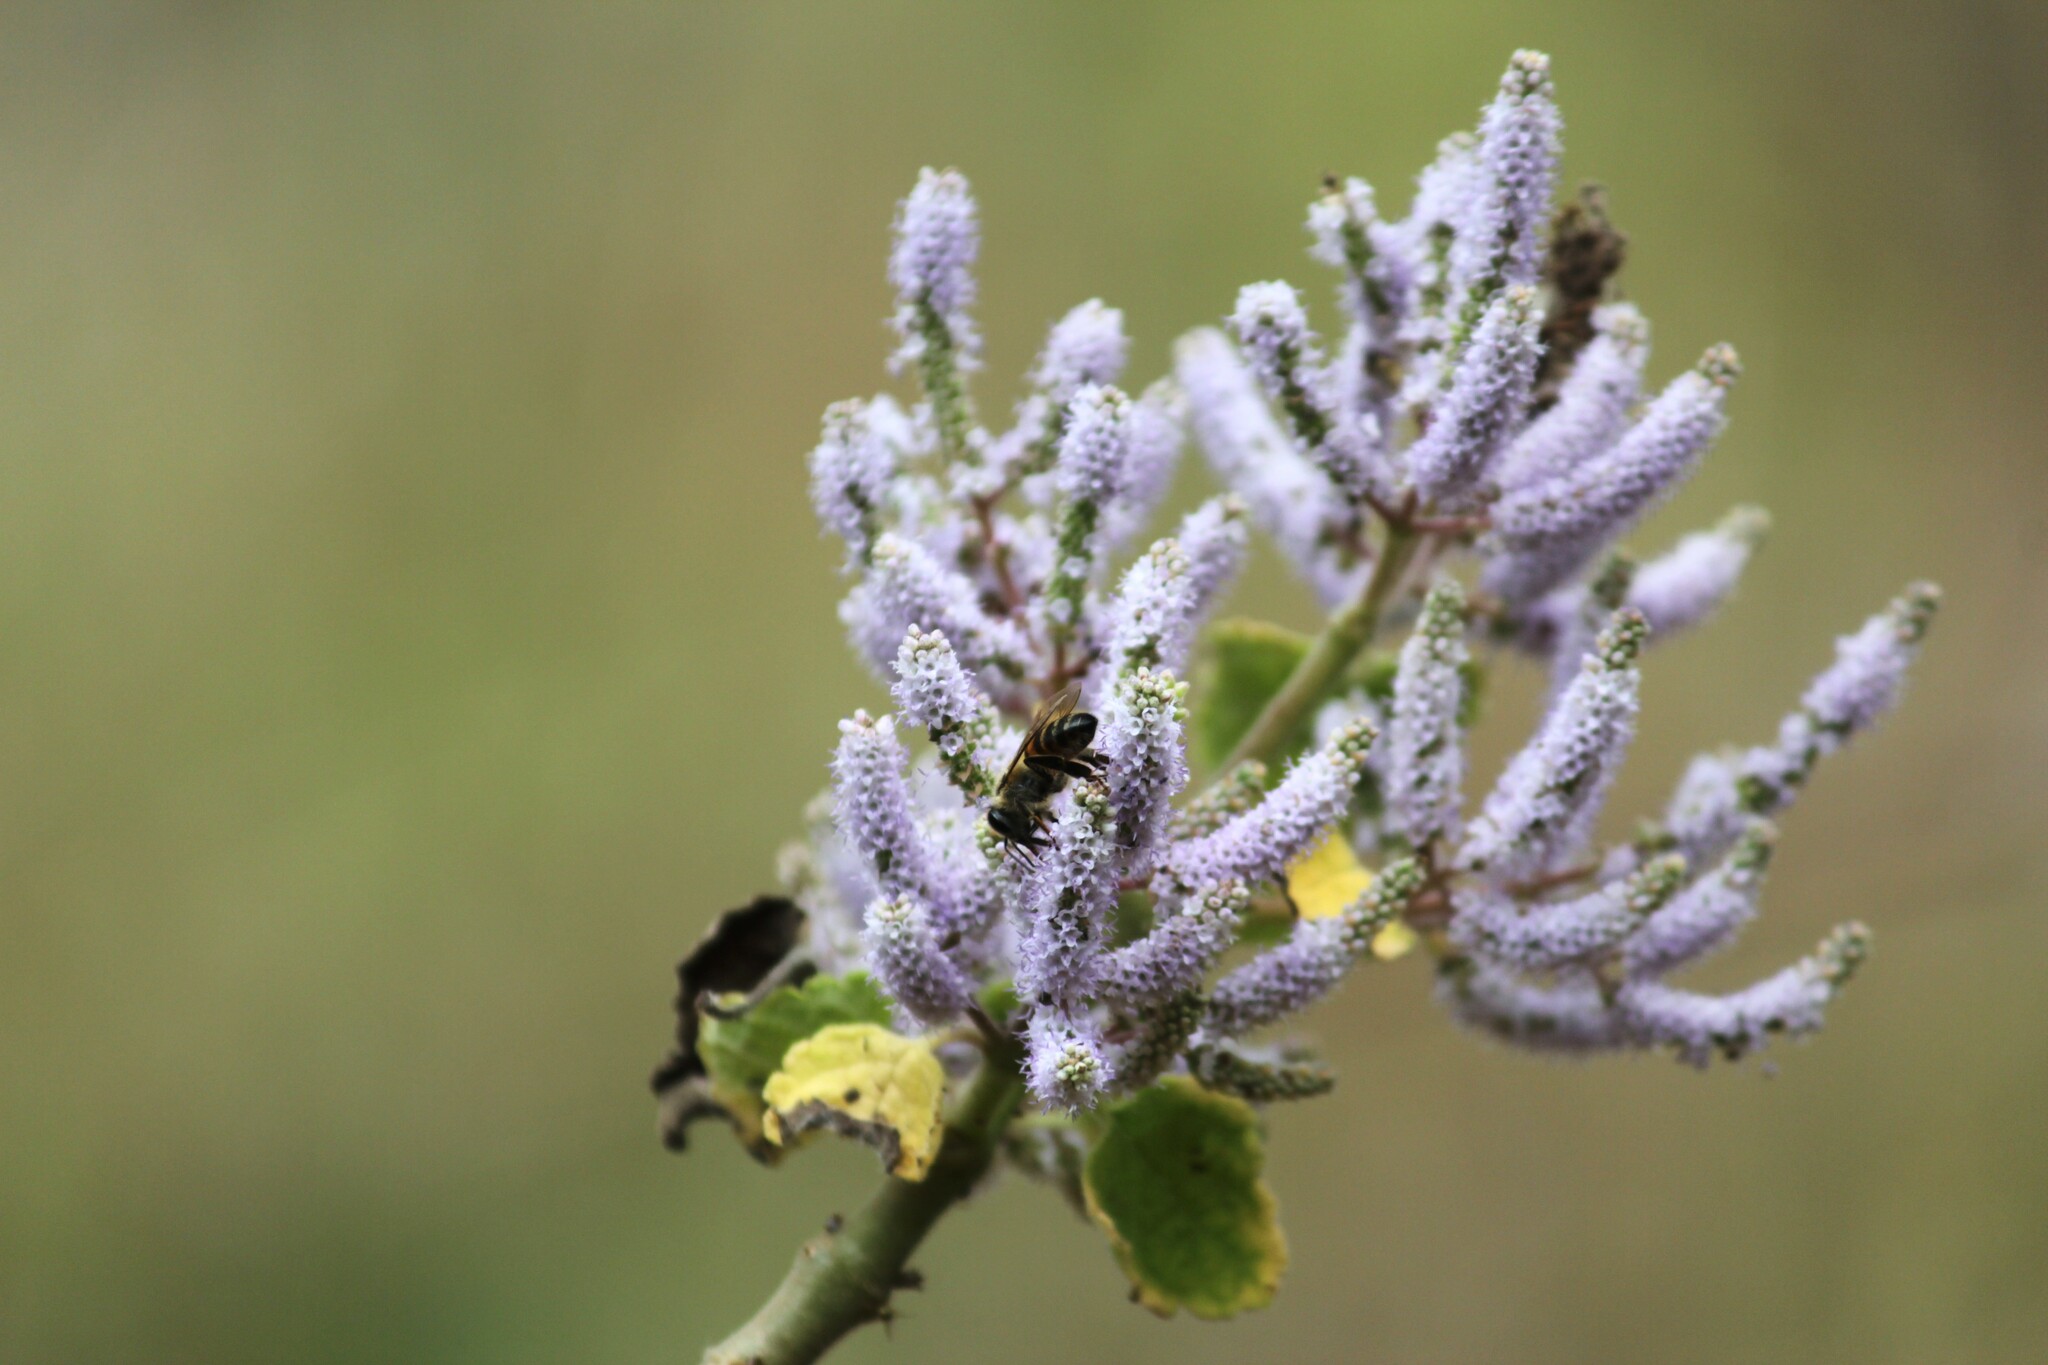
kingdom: Animalia
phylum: Arthropoda
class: Insecta
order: Hymenoptera
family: Apidae
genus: Apis
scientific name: Apis mellifera
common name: Honey bee
